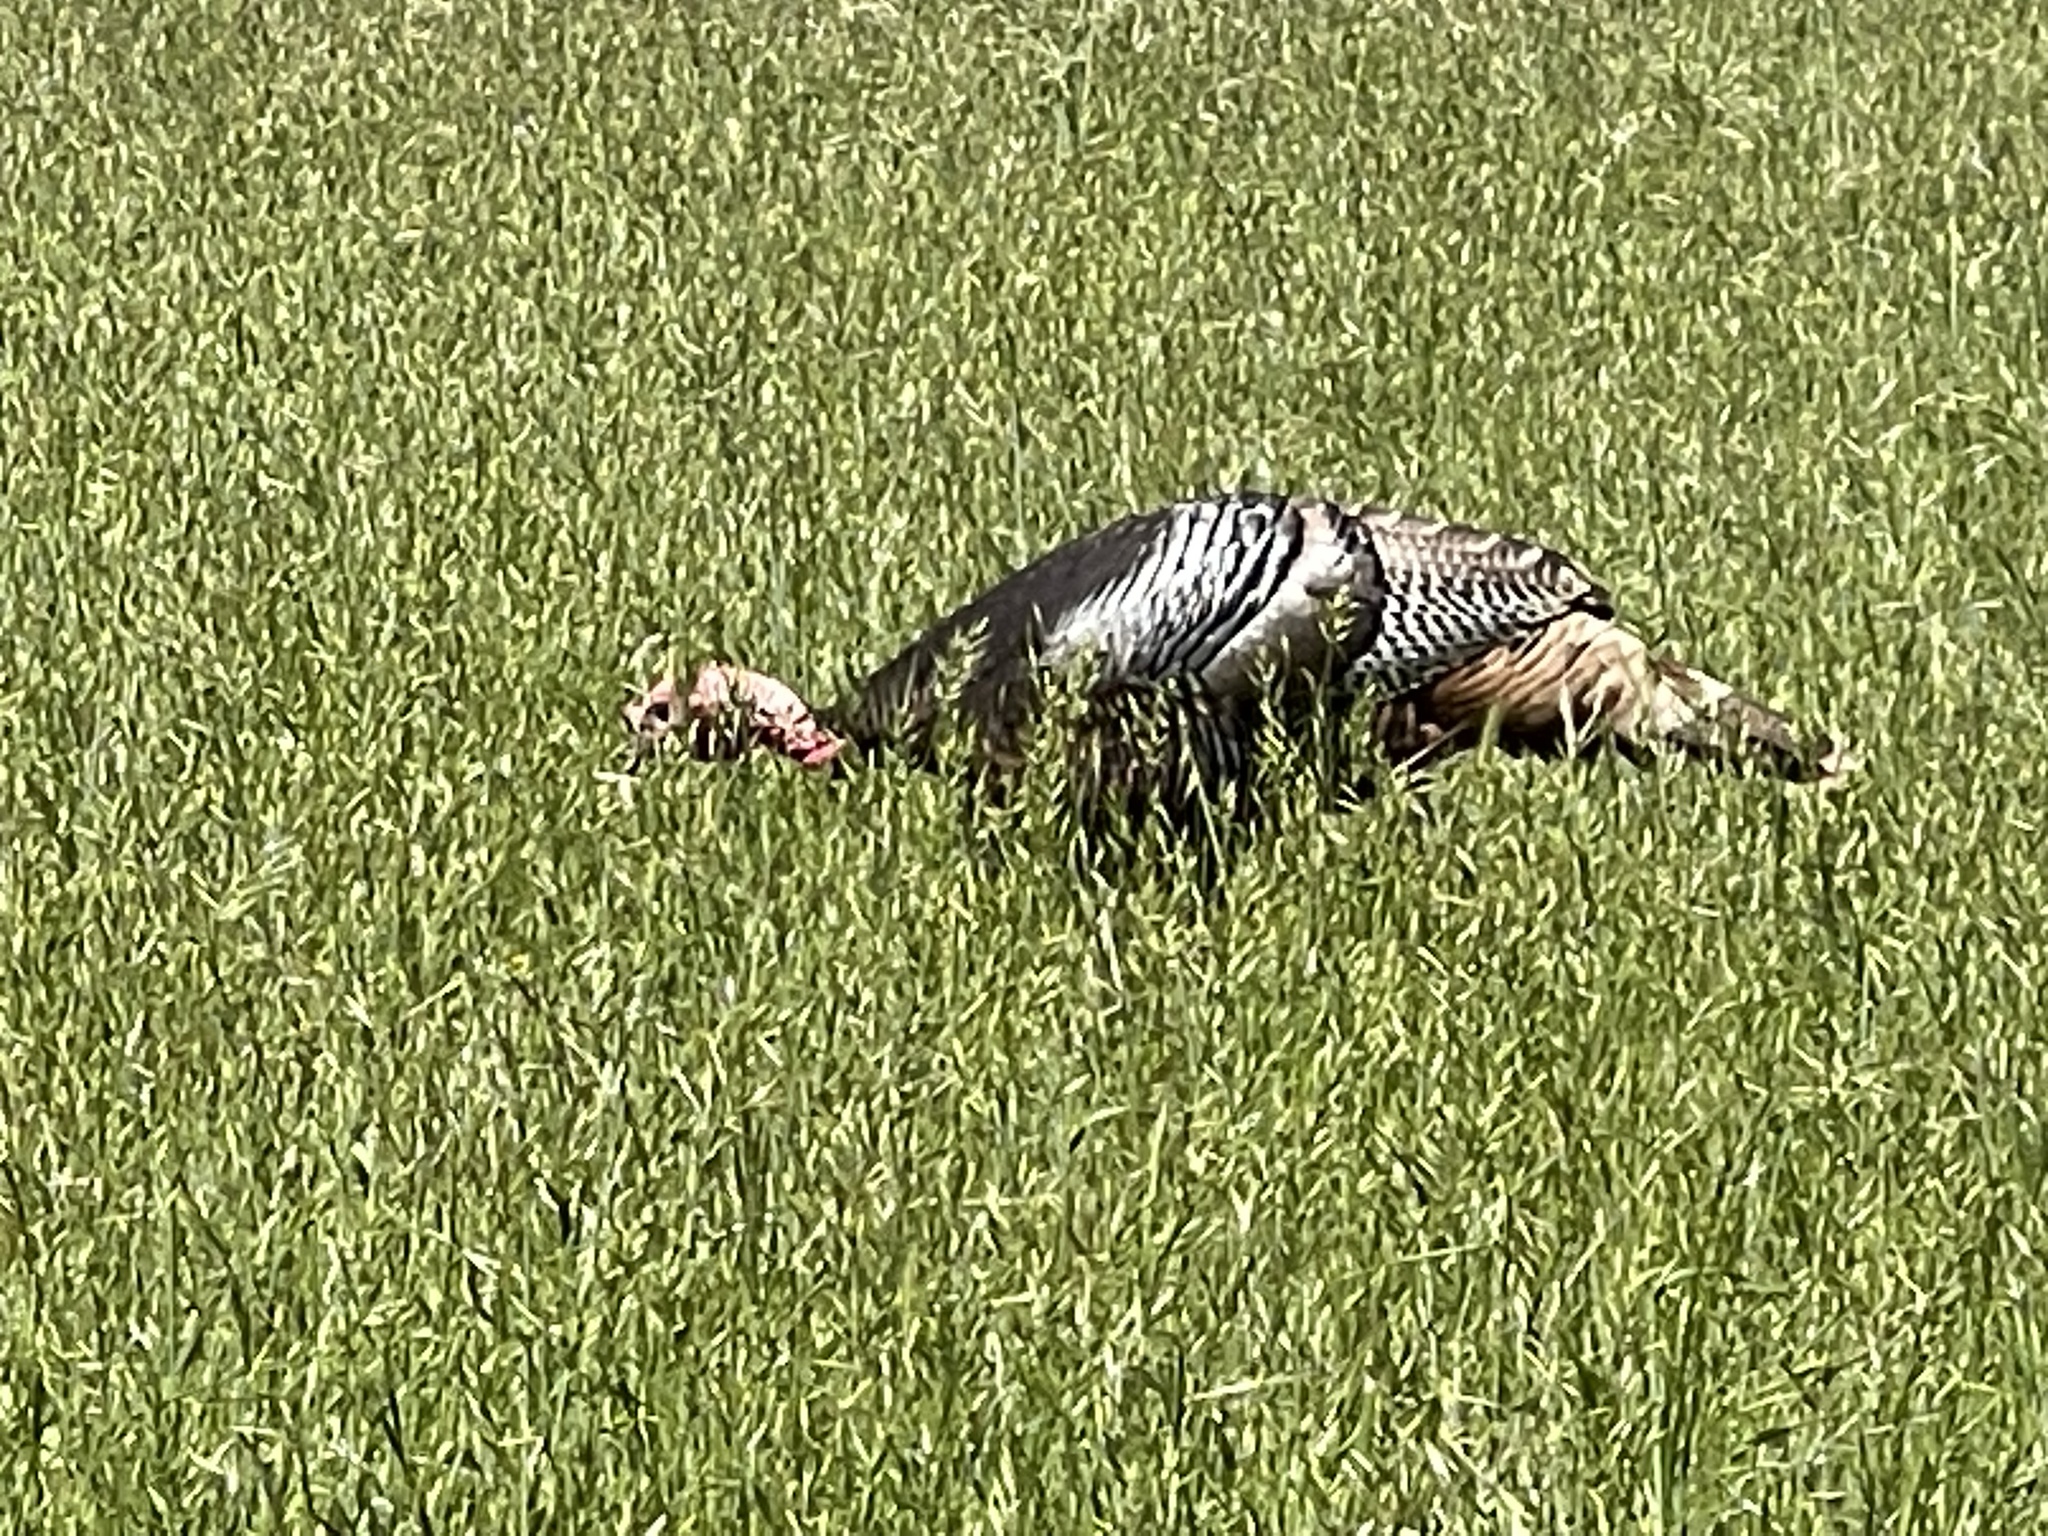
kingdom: Animalia
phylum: Chordata
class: Aves
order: Galliformes
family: Phasianidae
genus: Meleagris
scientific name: Meleagris gallopavo
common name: Wild turkey
